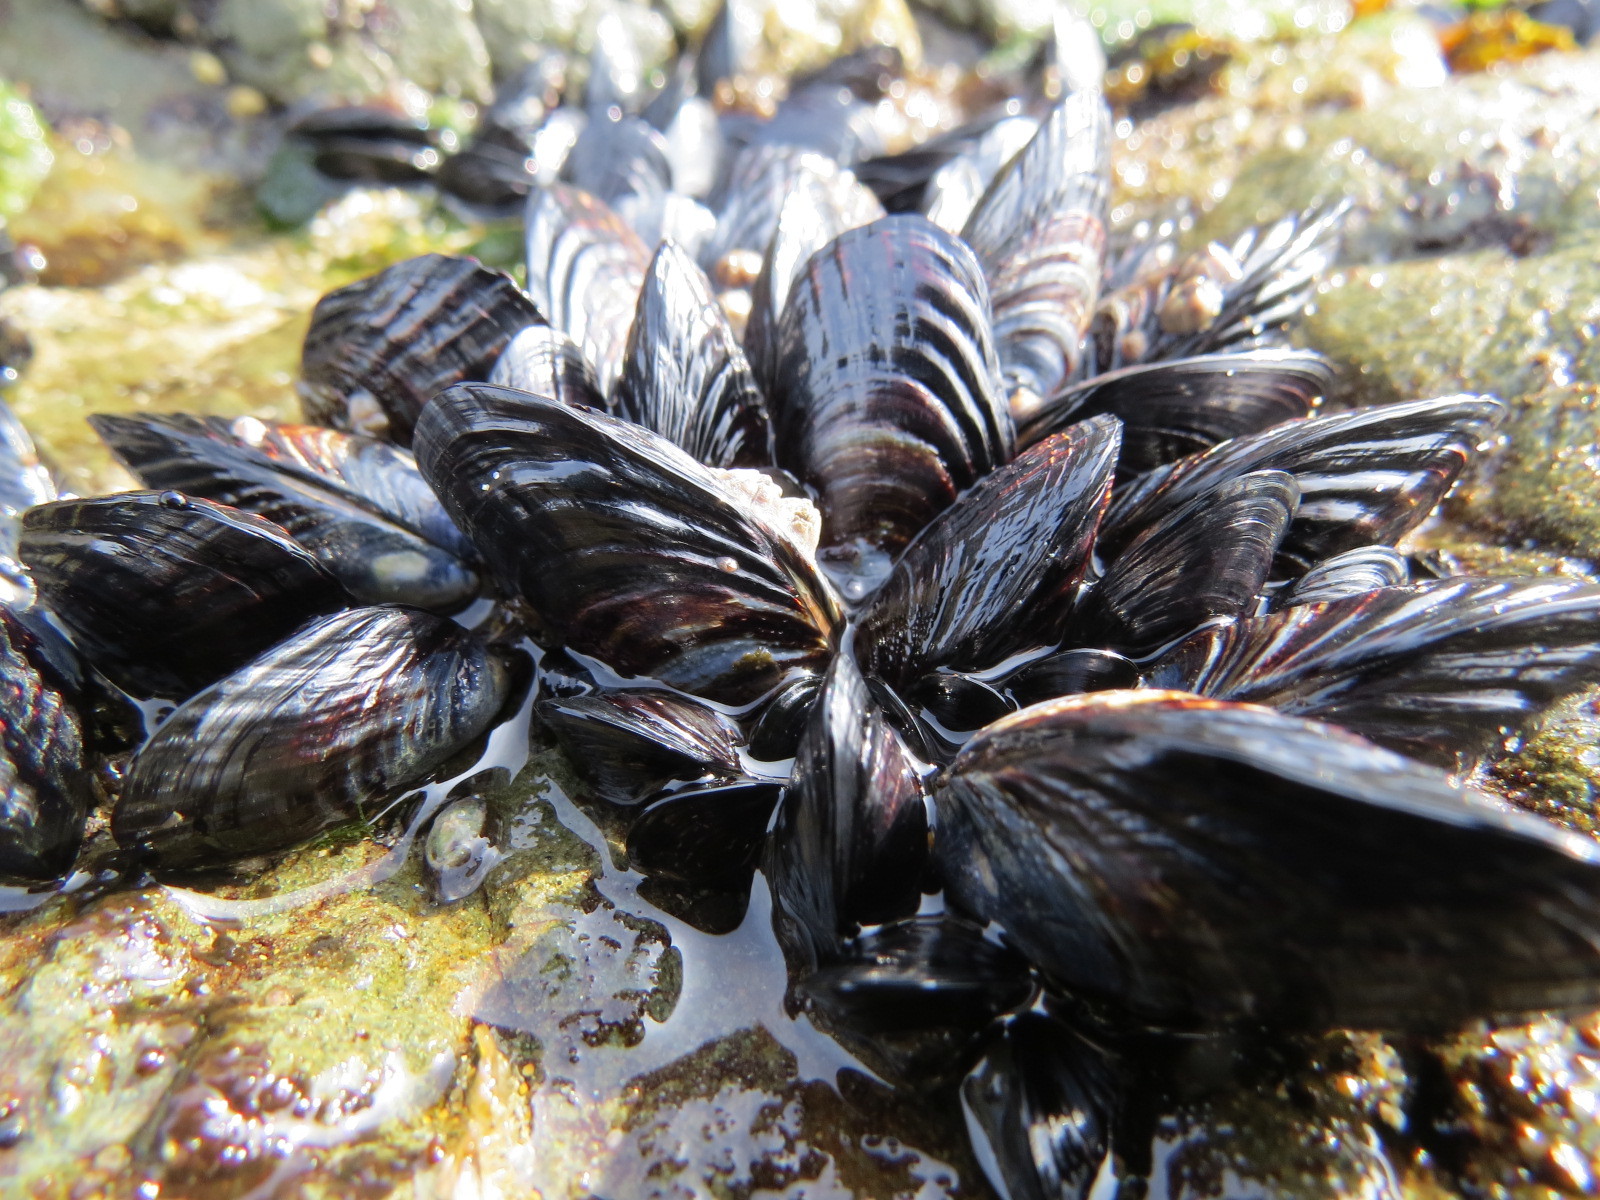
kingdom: Animalia
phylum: Mollusca
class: Bivalvia
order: Mytilida
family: Mytilidae
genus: Mytilus
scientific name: Mytilus californianus
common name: California mussel
